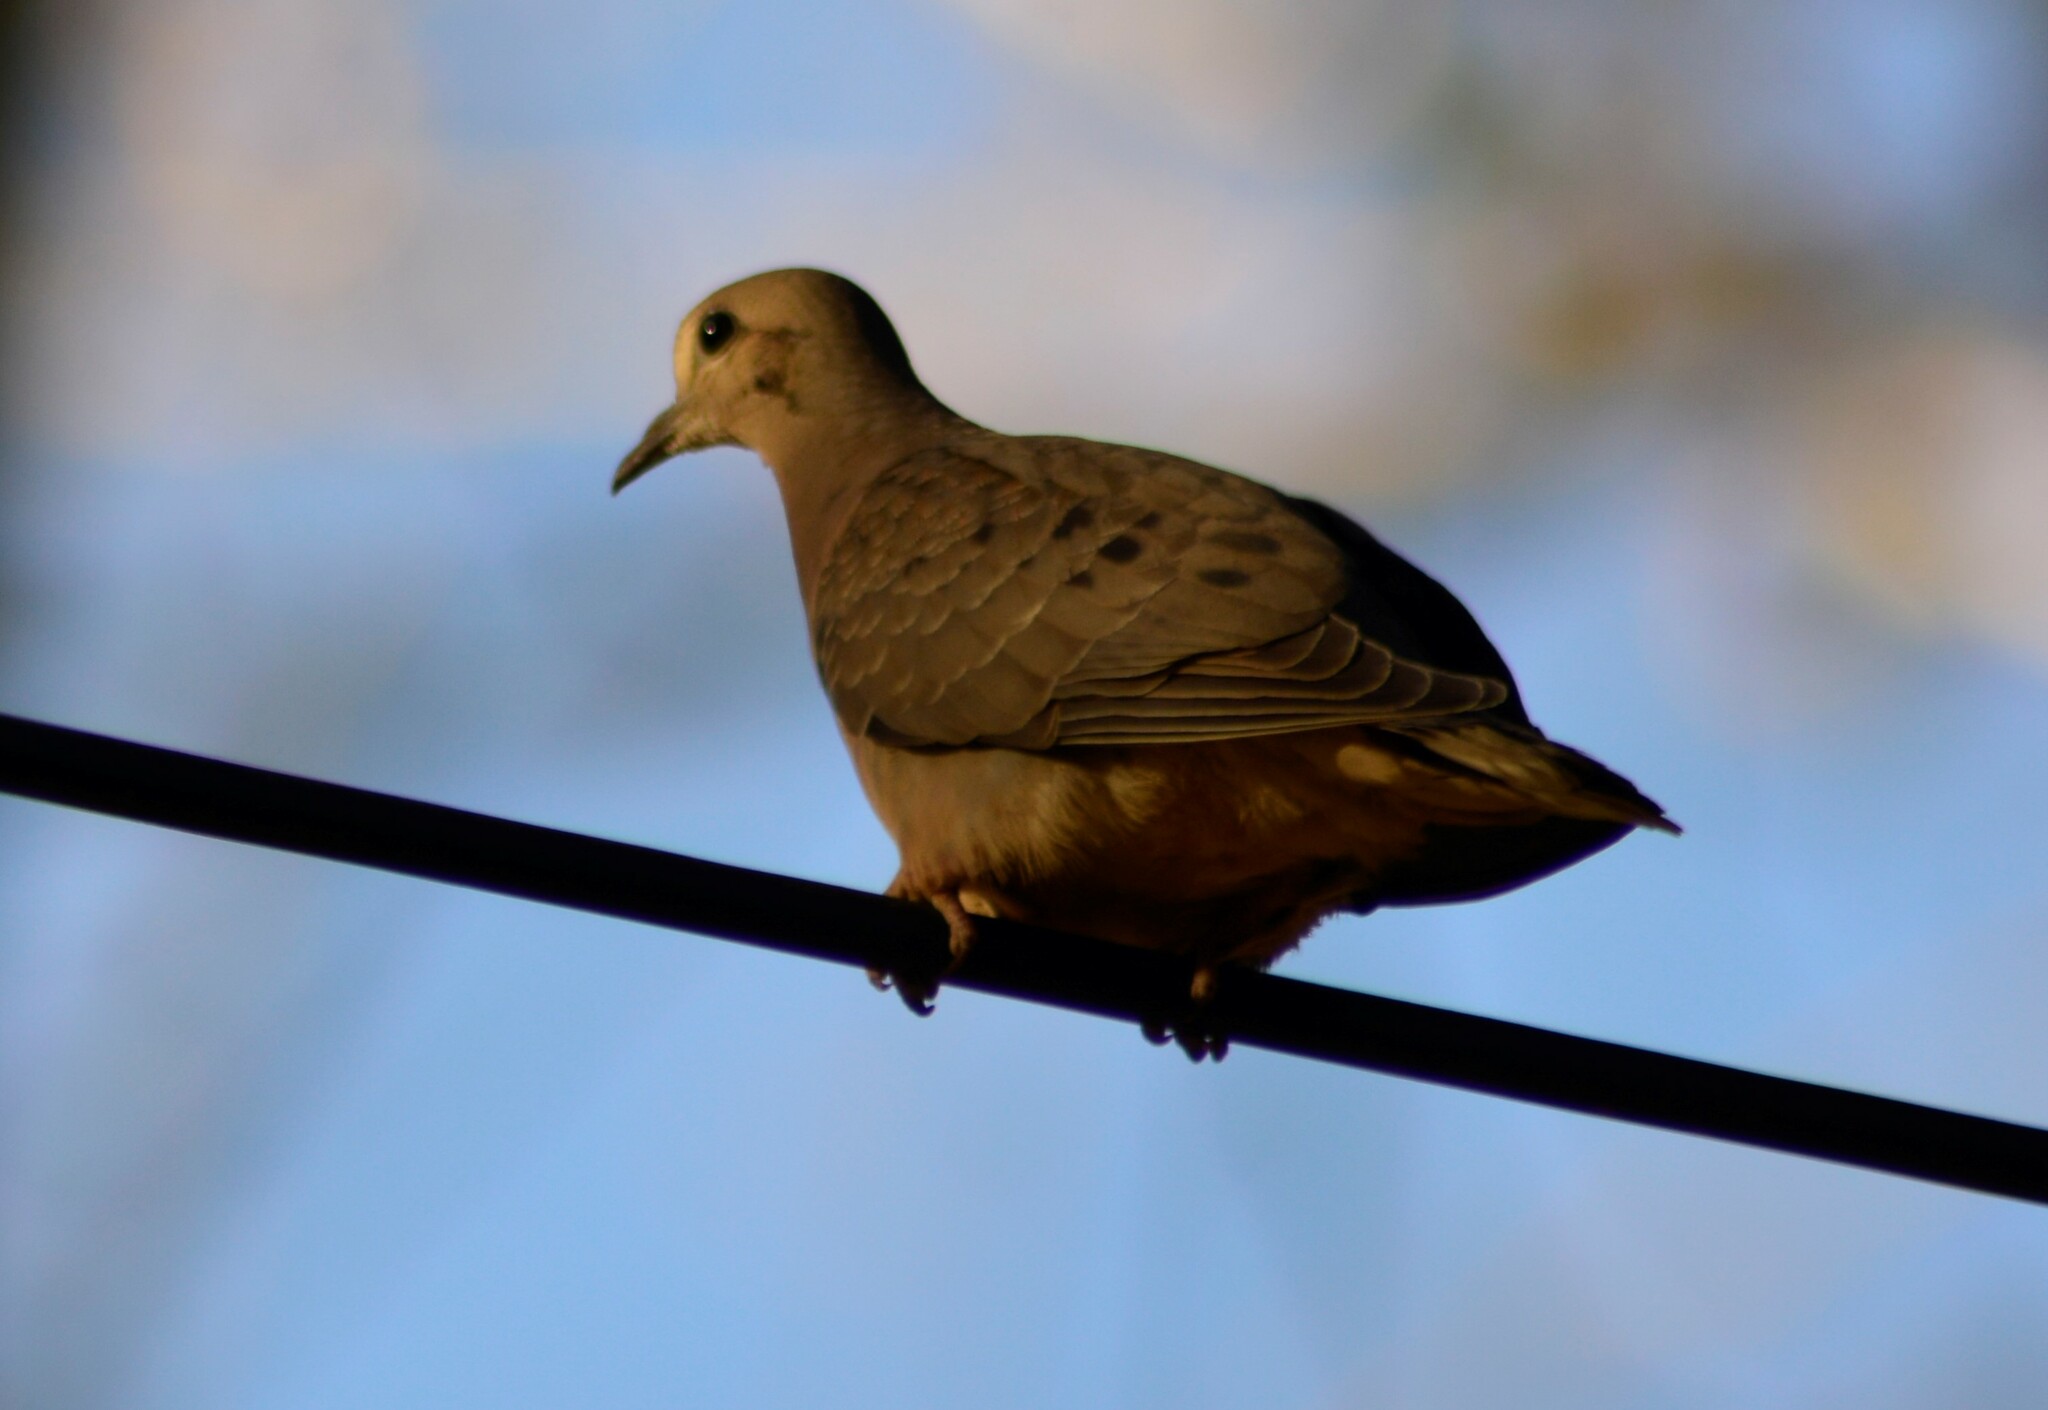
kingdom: Animalia
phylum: Chordata
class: Aves
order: Columbiformes
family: Columbidae
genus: Zenaida
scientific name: Zenaida auriculata
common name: Eared dove
